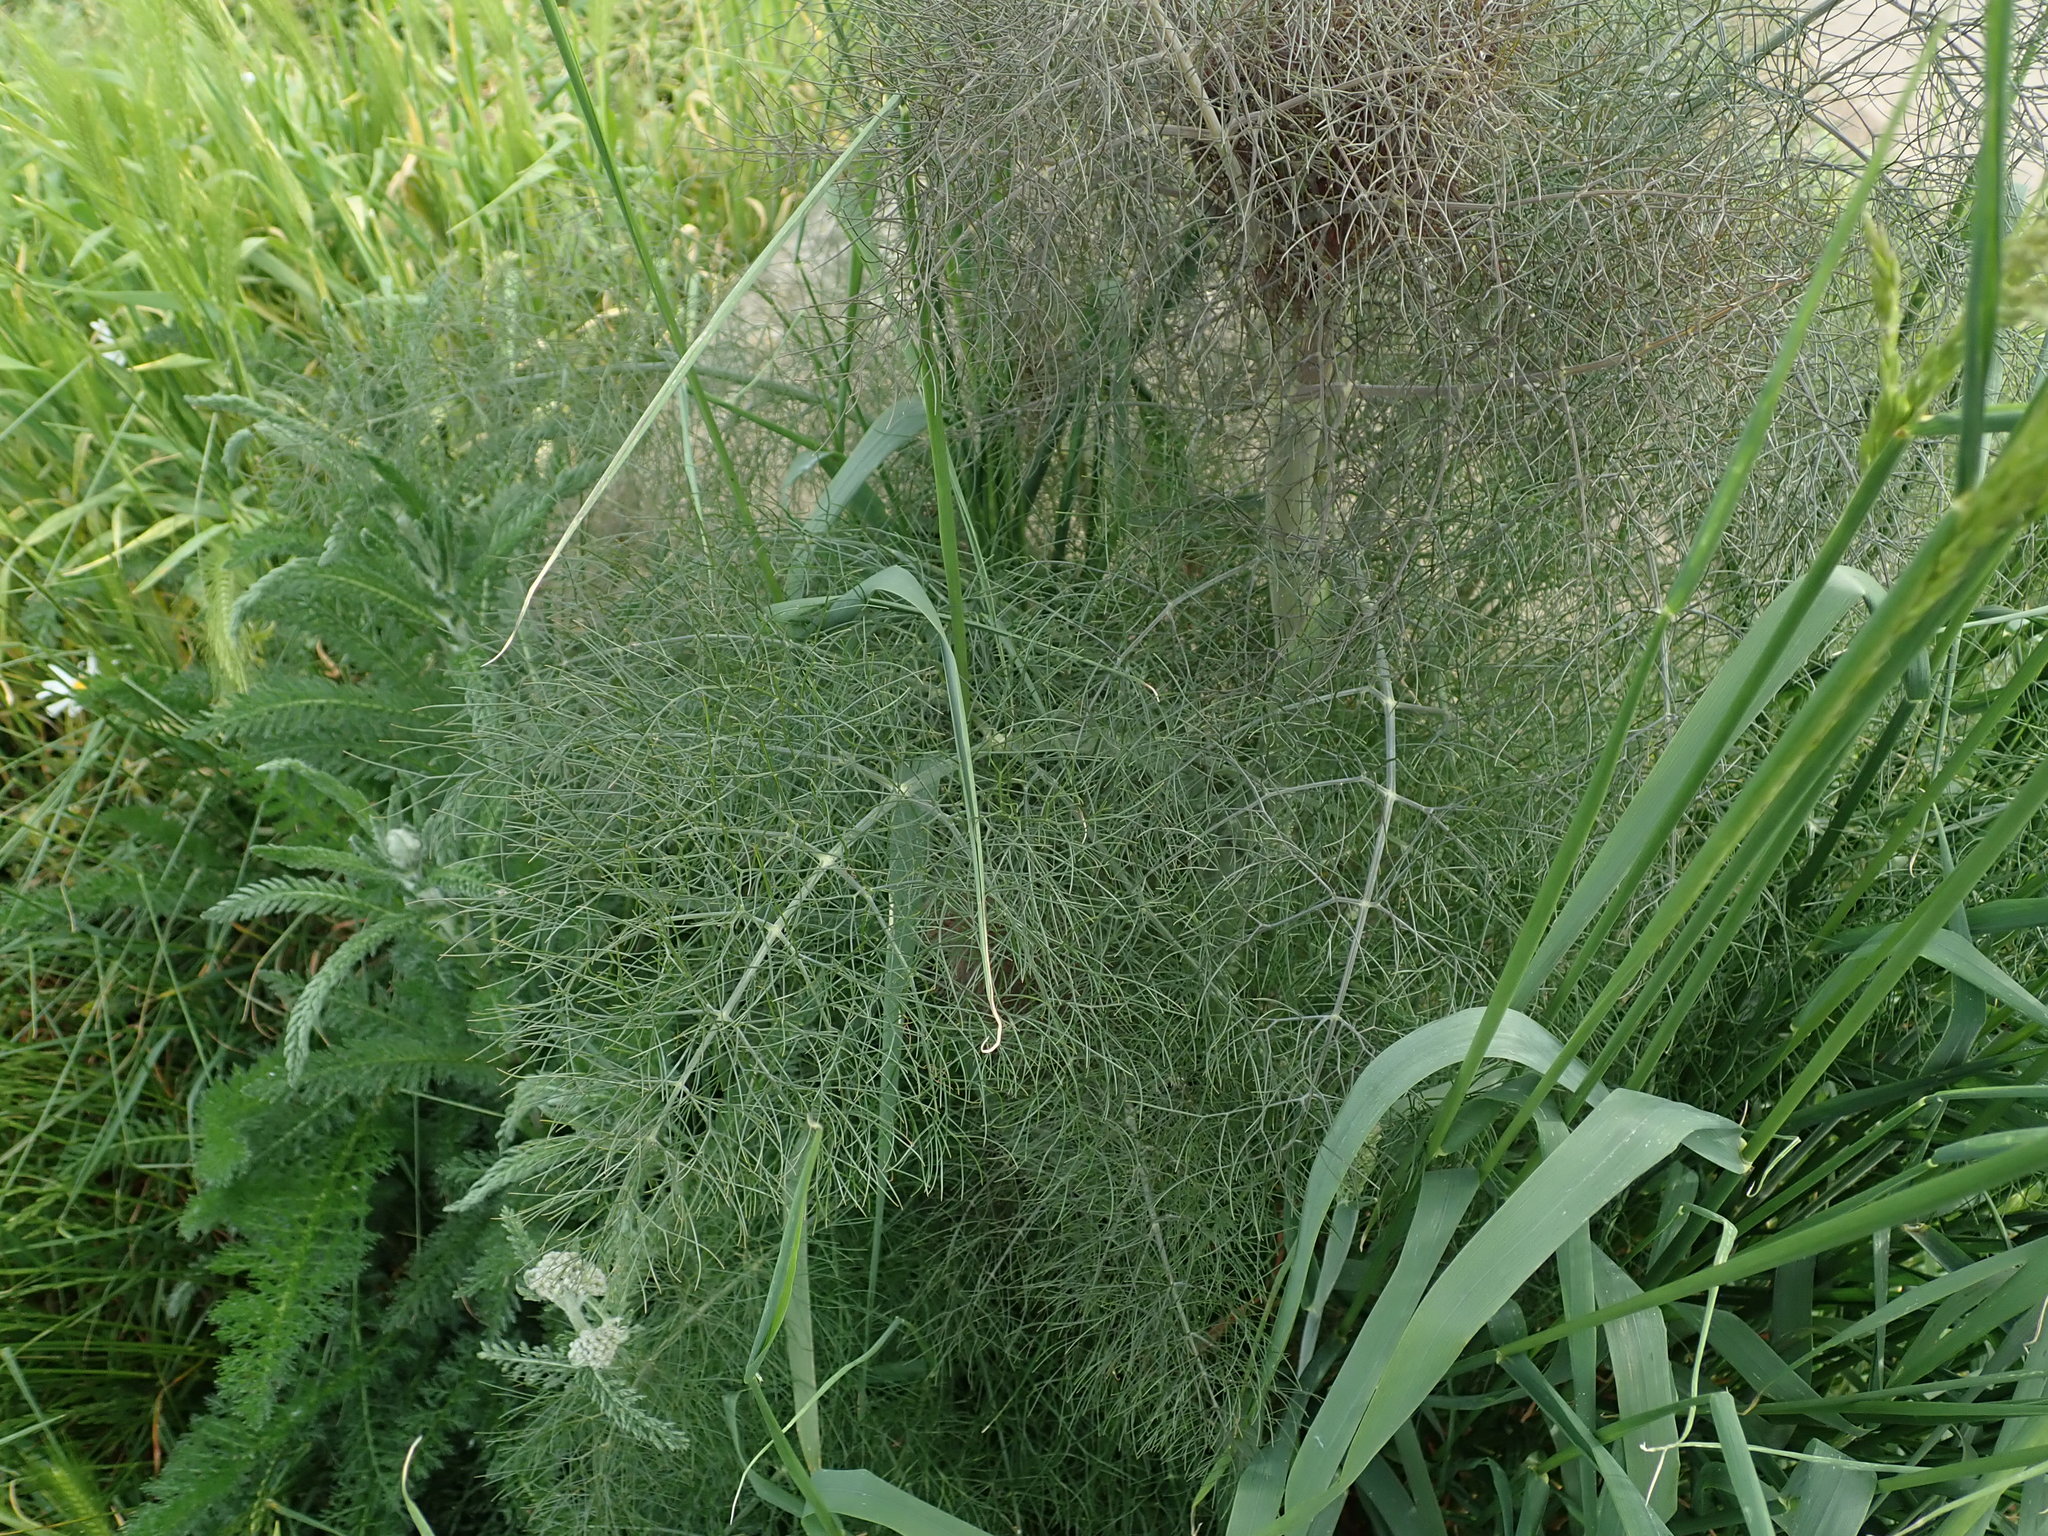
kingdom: Plantae
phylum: Tracheophyta
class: Magnoliopsida
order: Apiales
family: Apiaceae
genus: Foeniculum
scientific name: Foeniculum vulgare
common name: Fennel
